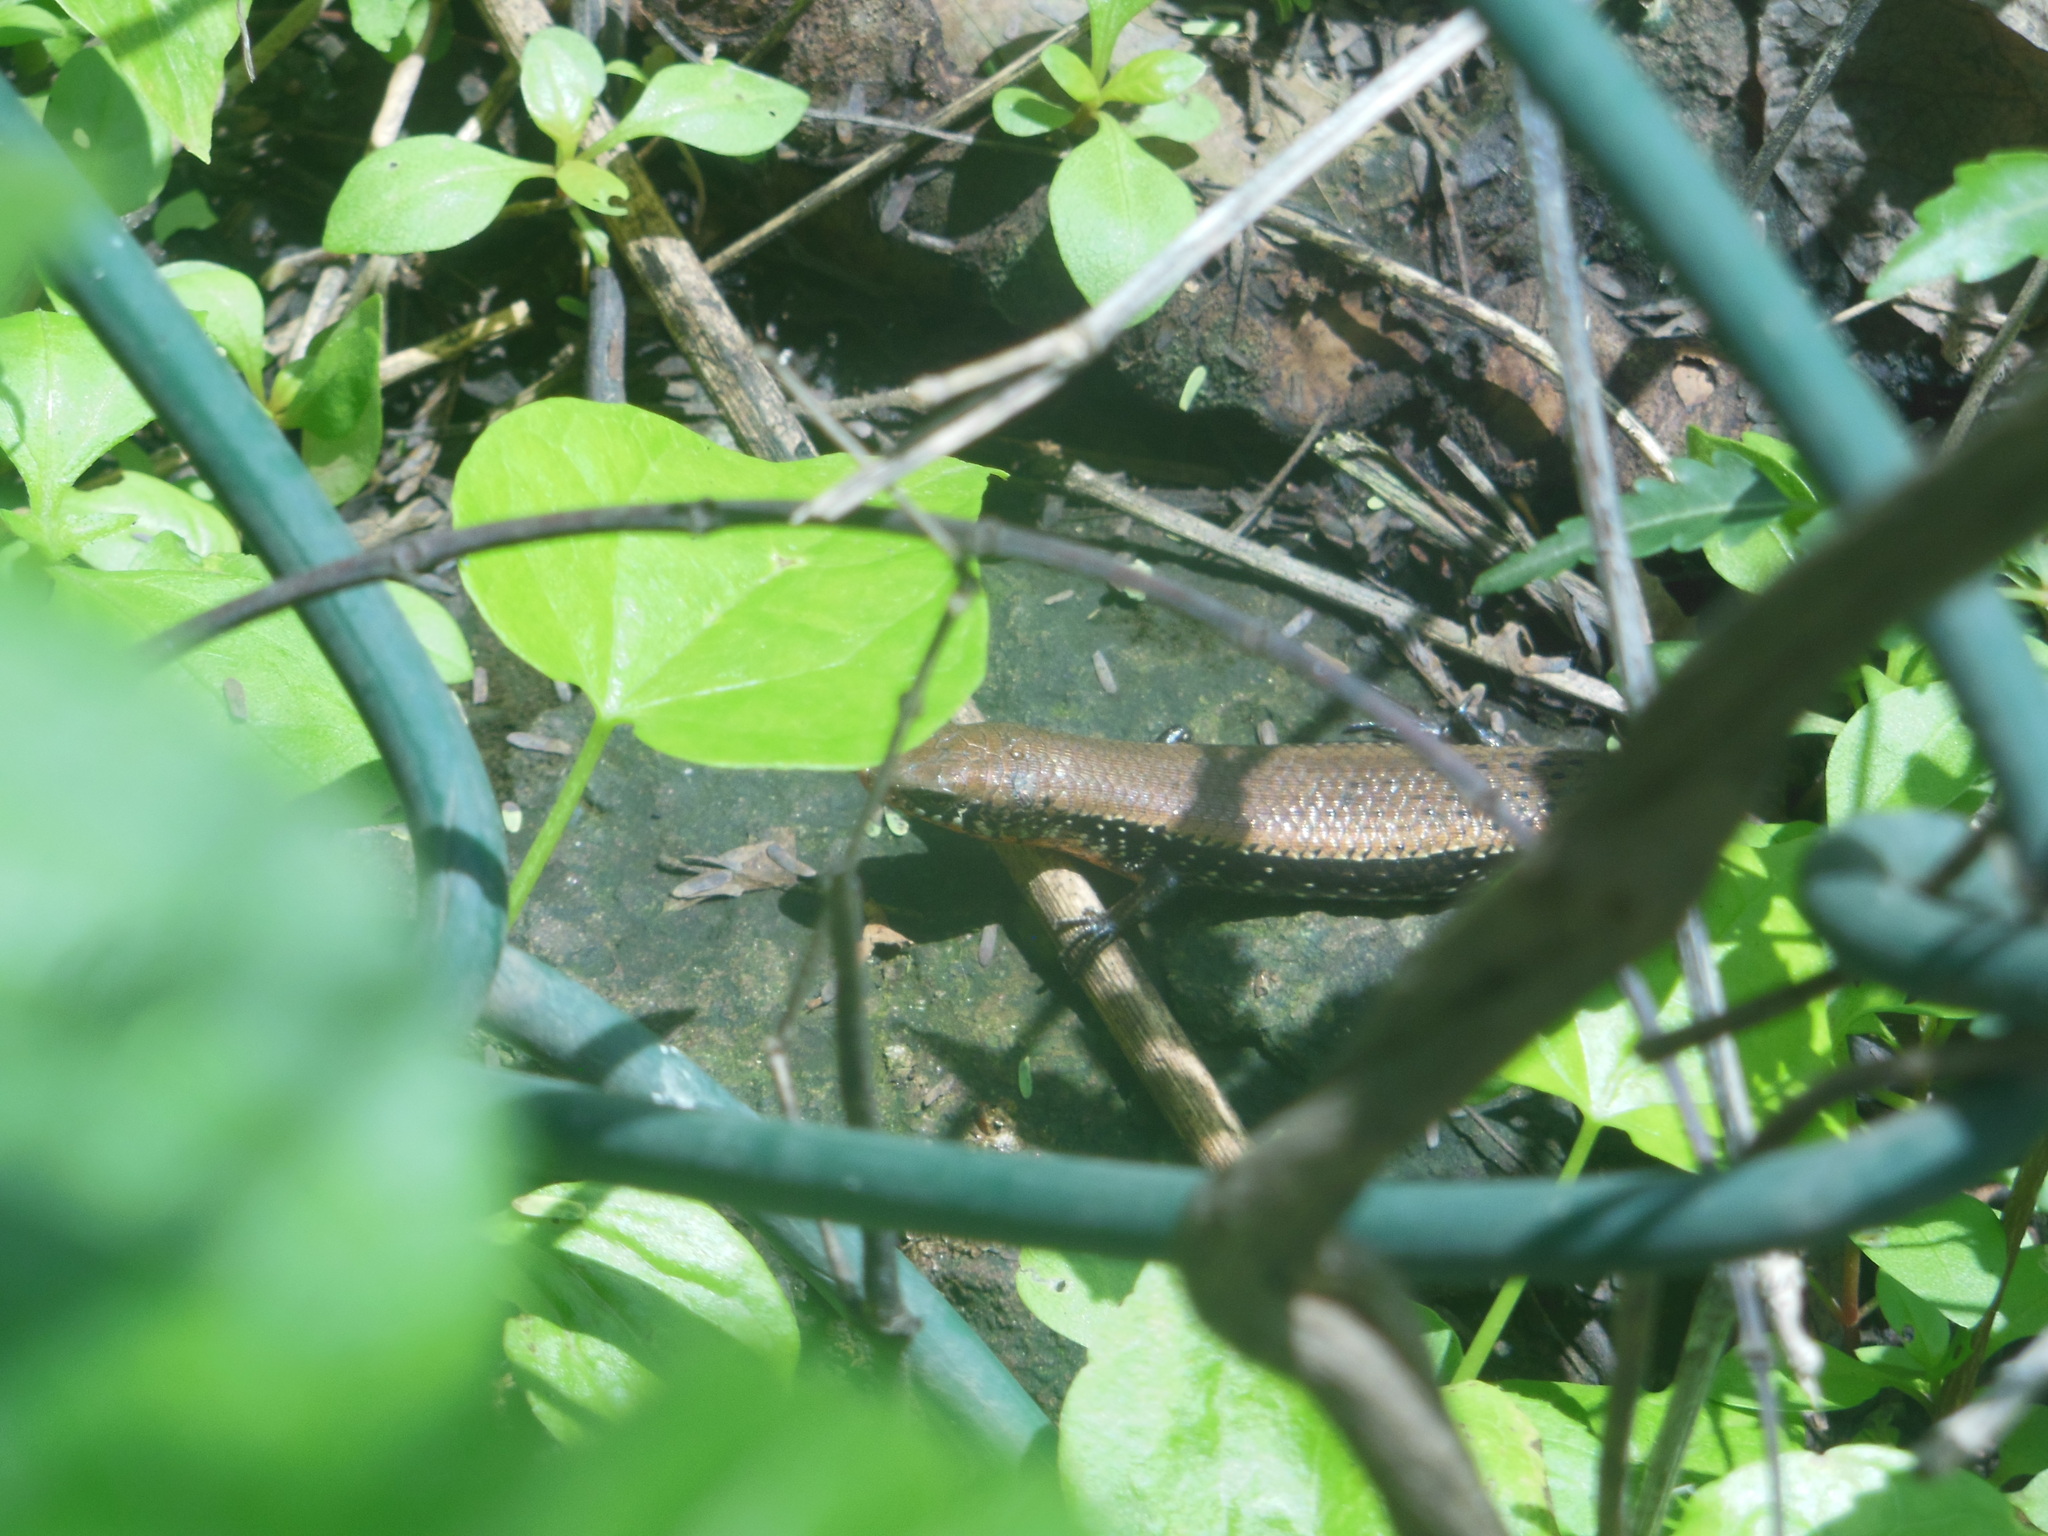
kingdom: Animalia
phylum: Chordata
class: Squamata
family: Scincidae
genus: Eutropis
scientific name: Eutropis macularia
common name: Bronze mabuya
